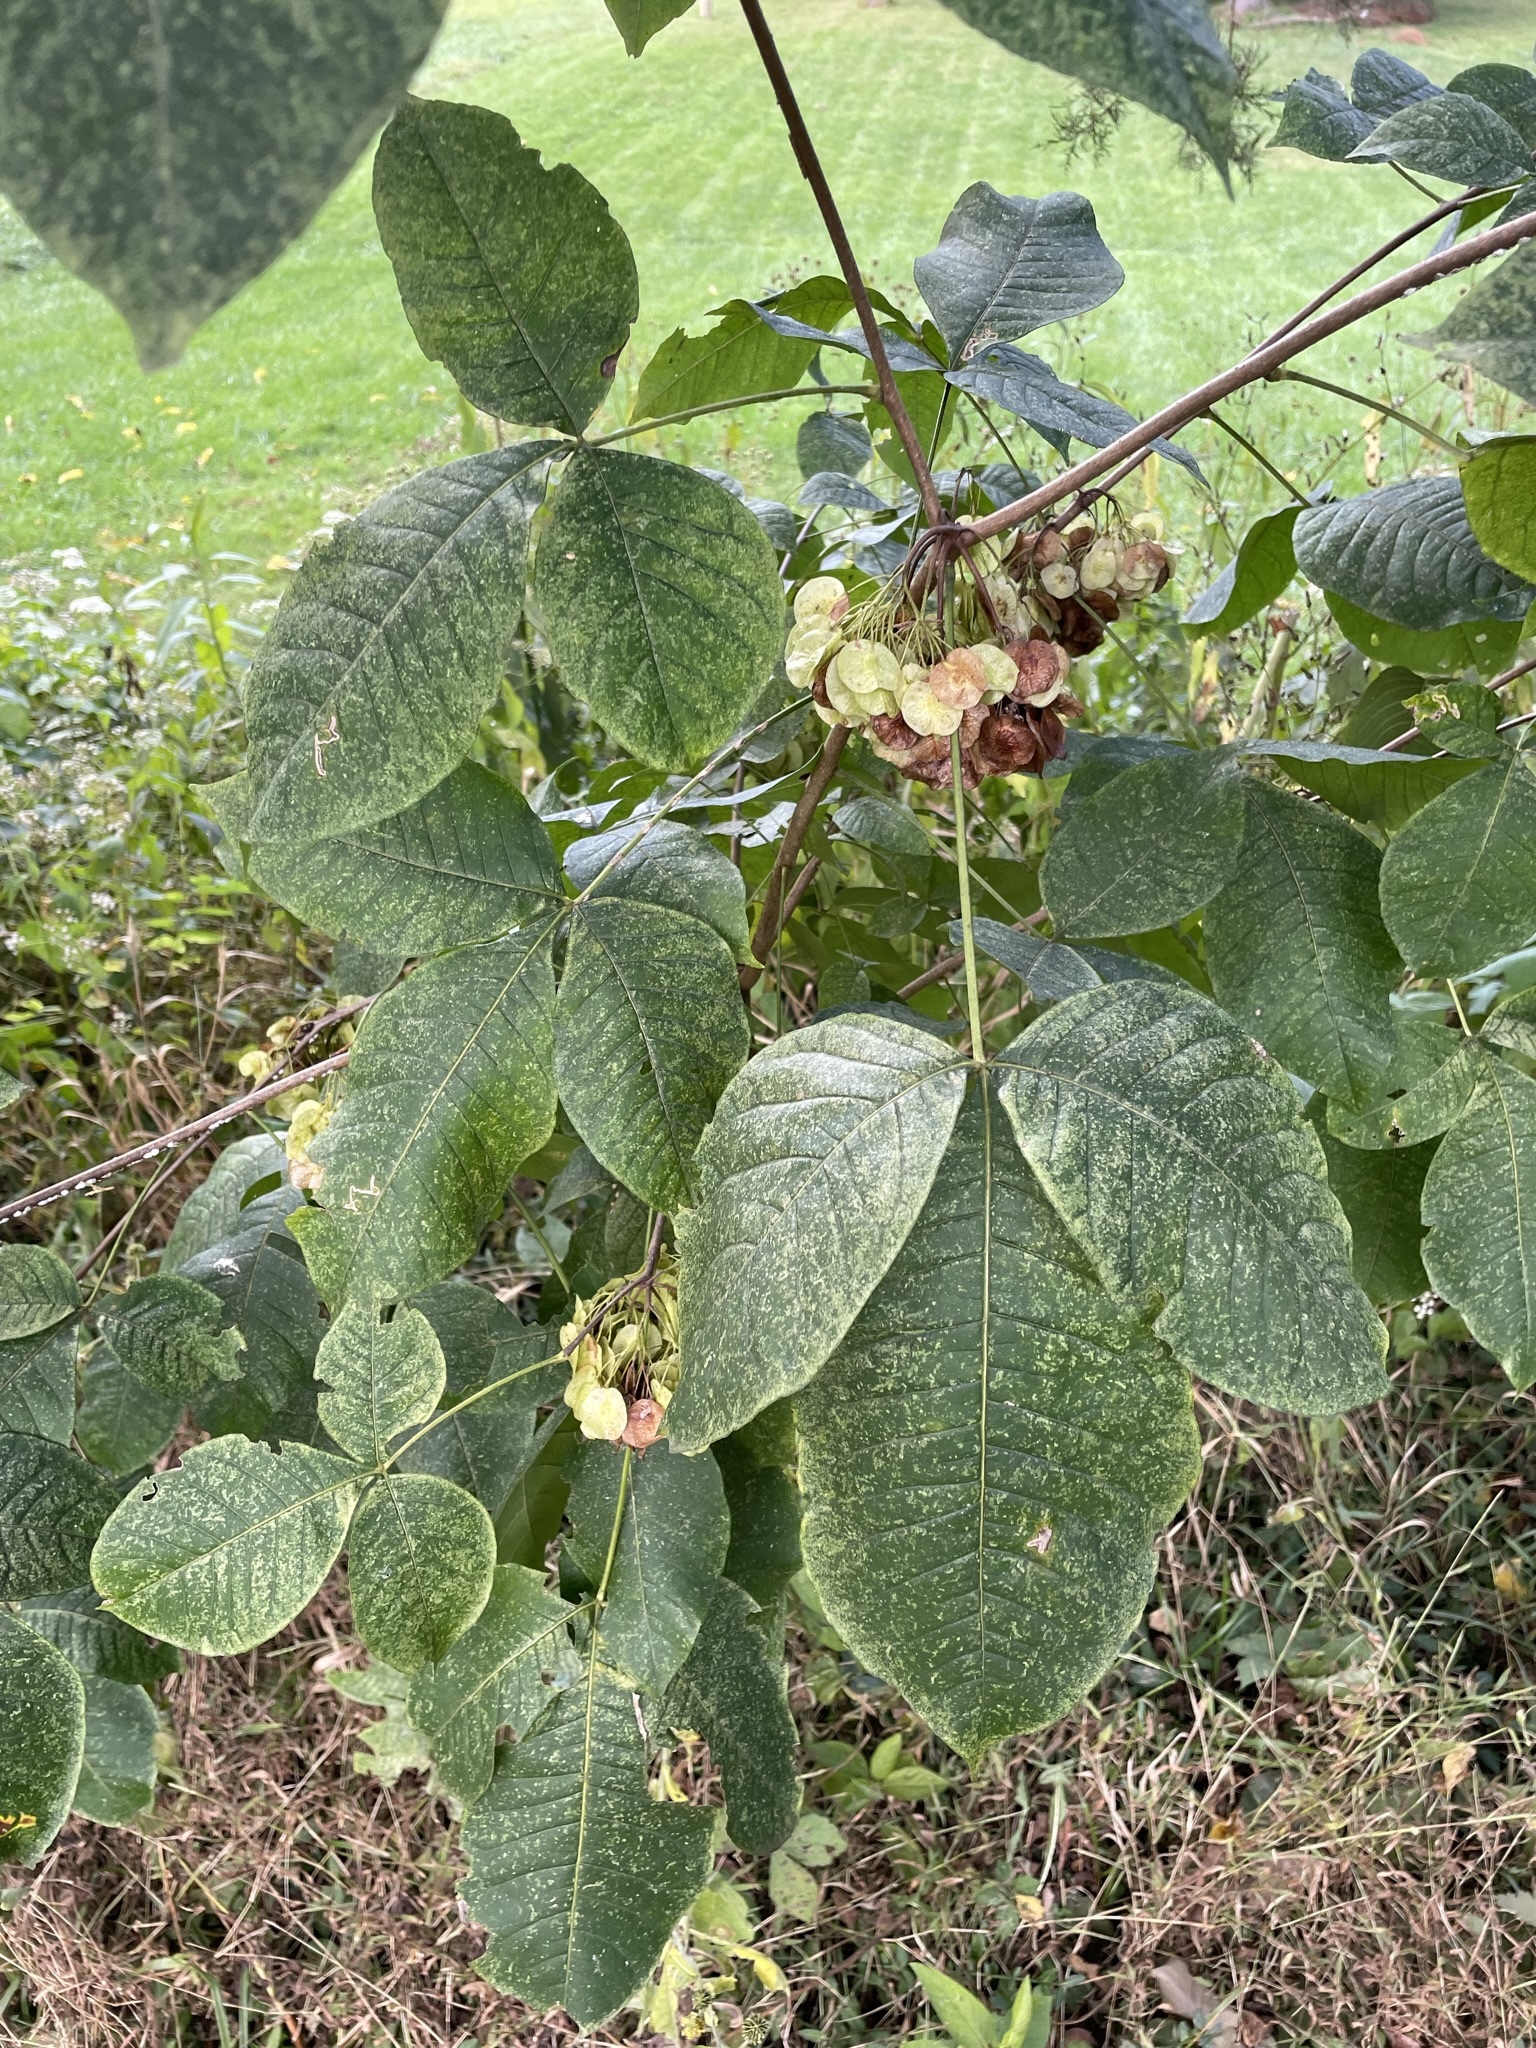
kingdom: Plantae
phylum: Tracheophyta
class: Magnoliopsida
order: Sapindales
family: Rutaceae
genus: Ptelea
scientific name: Ptelea trifoliata
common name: Common hop-tree
